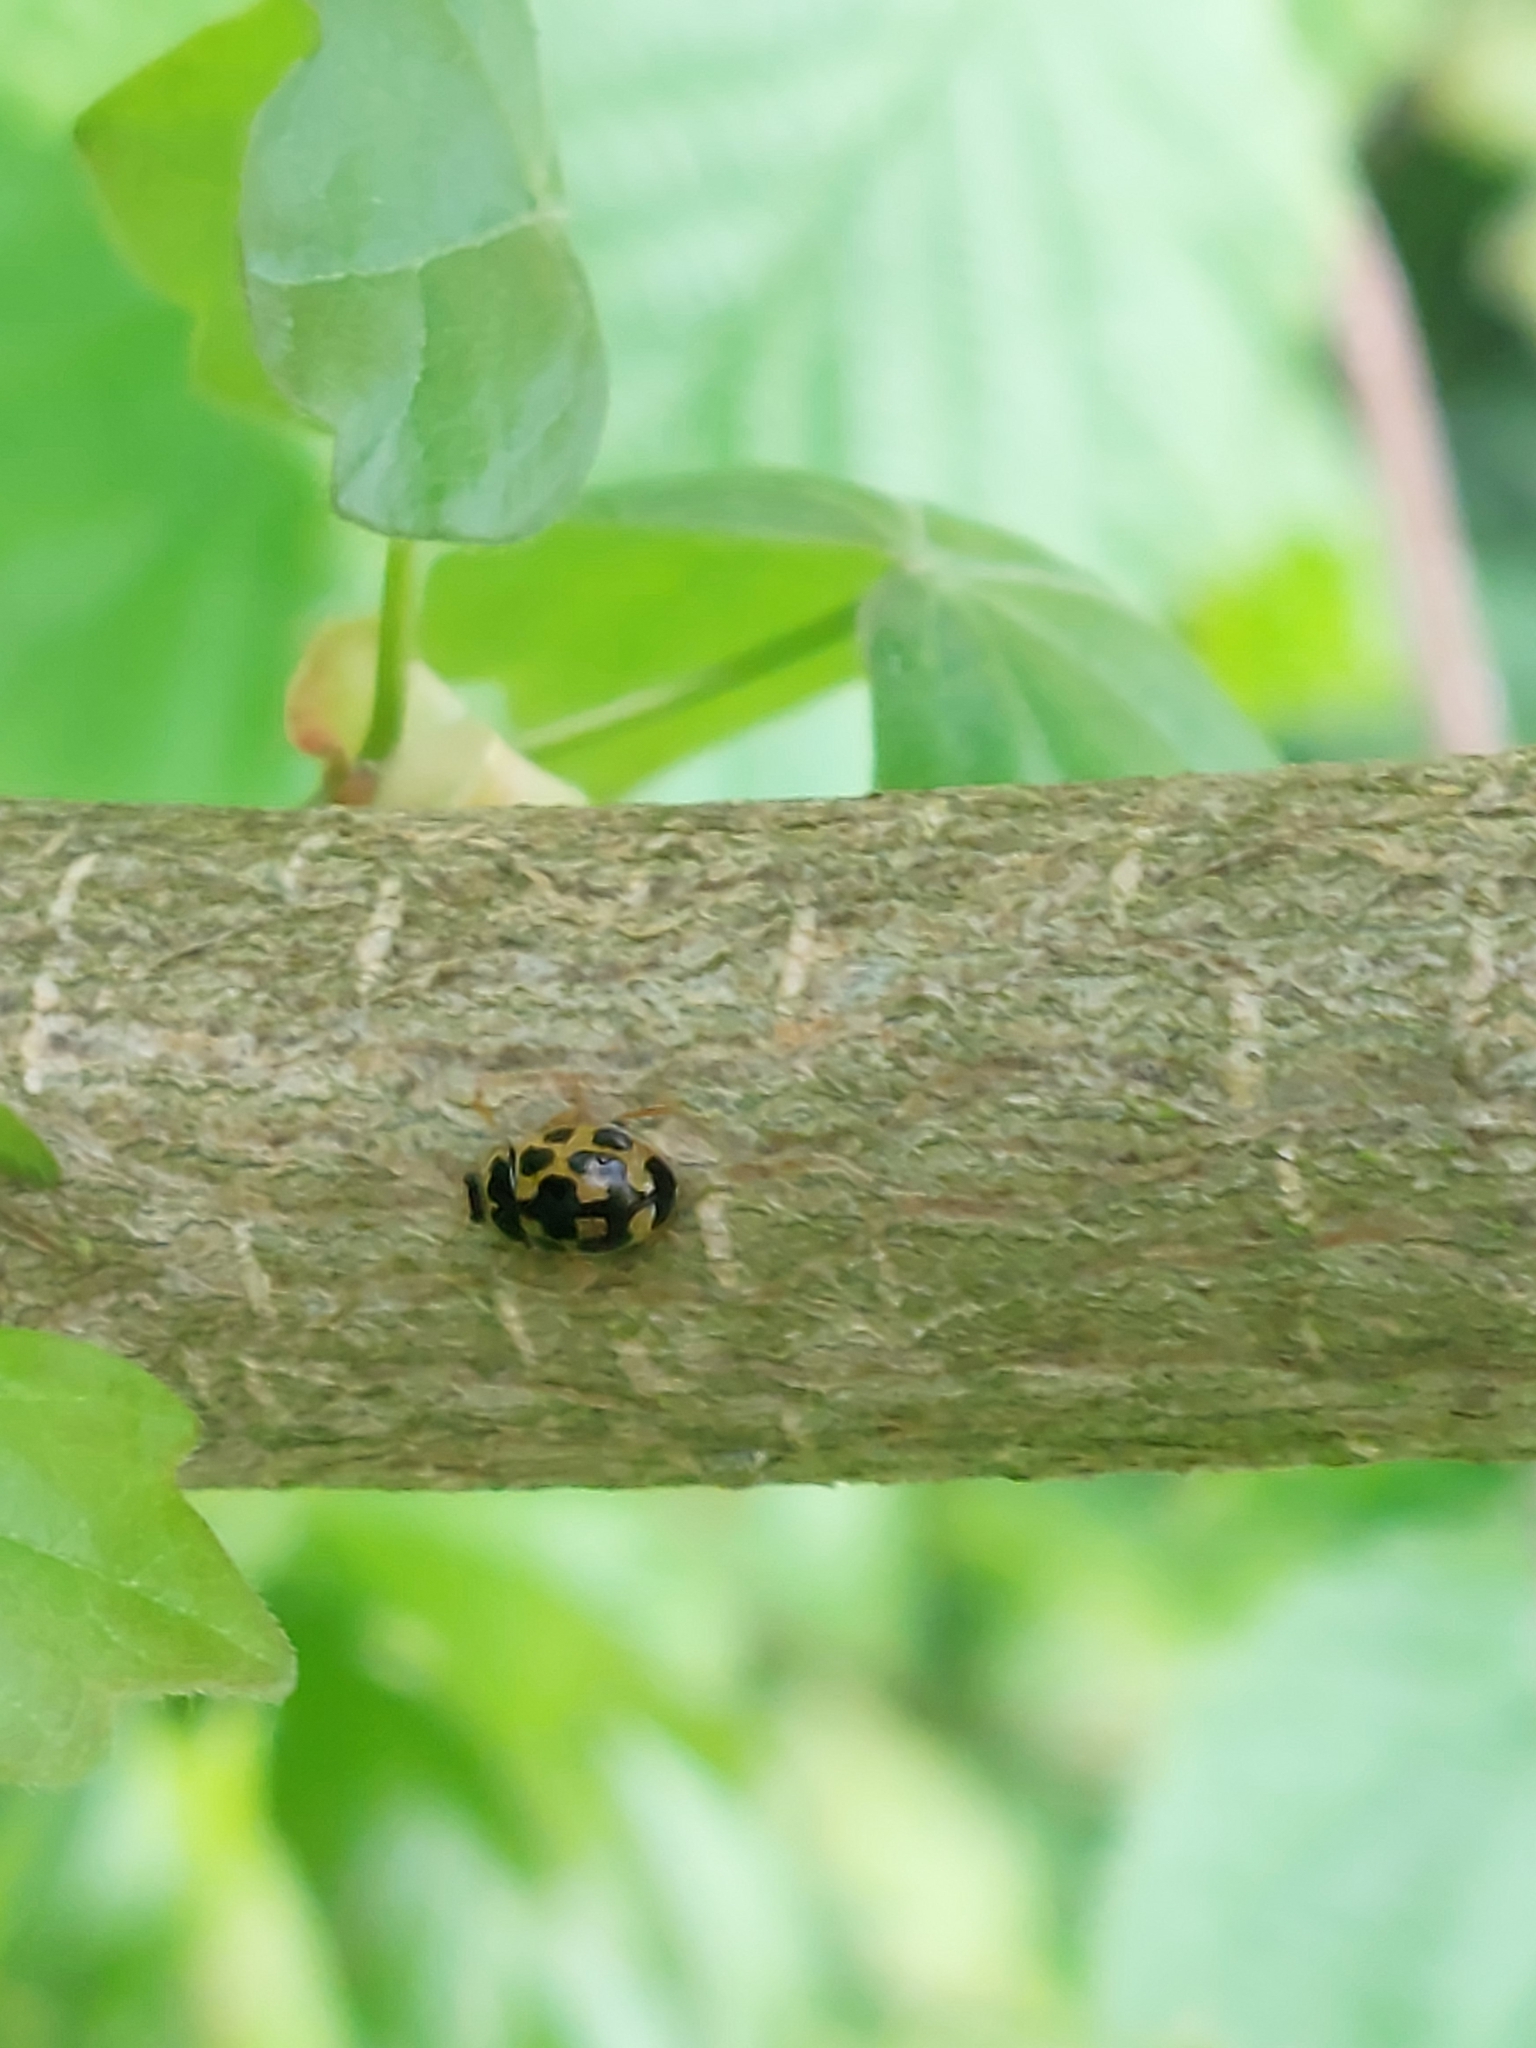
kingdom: Animalia
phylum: Arthropoda
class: Insecta
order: Coleoptera
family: Coccinellidae
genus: Propylaea
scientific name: Propylaea quatuordecimpunctata
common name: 14-spotted ladybird beetle
